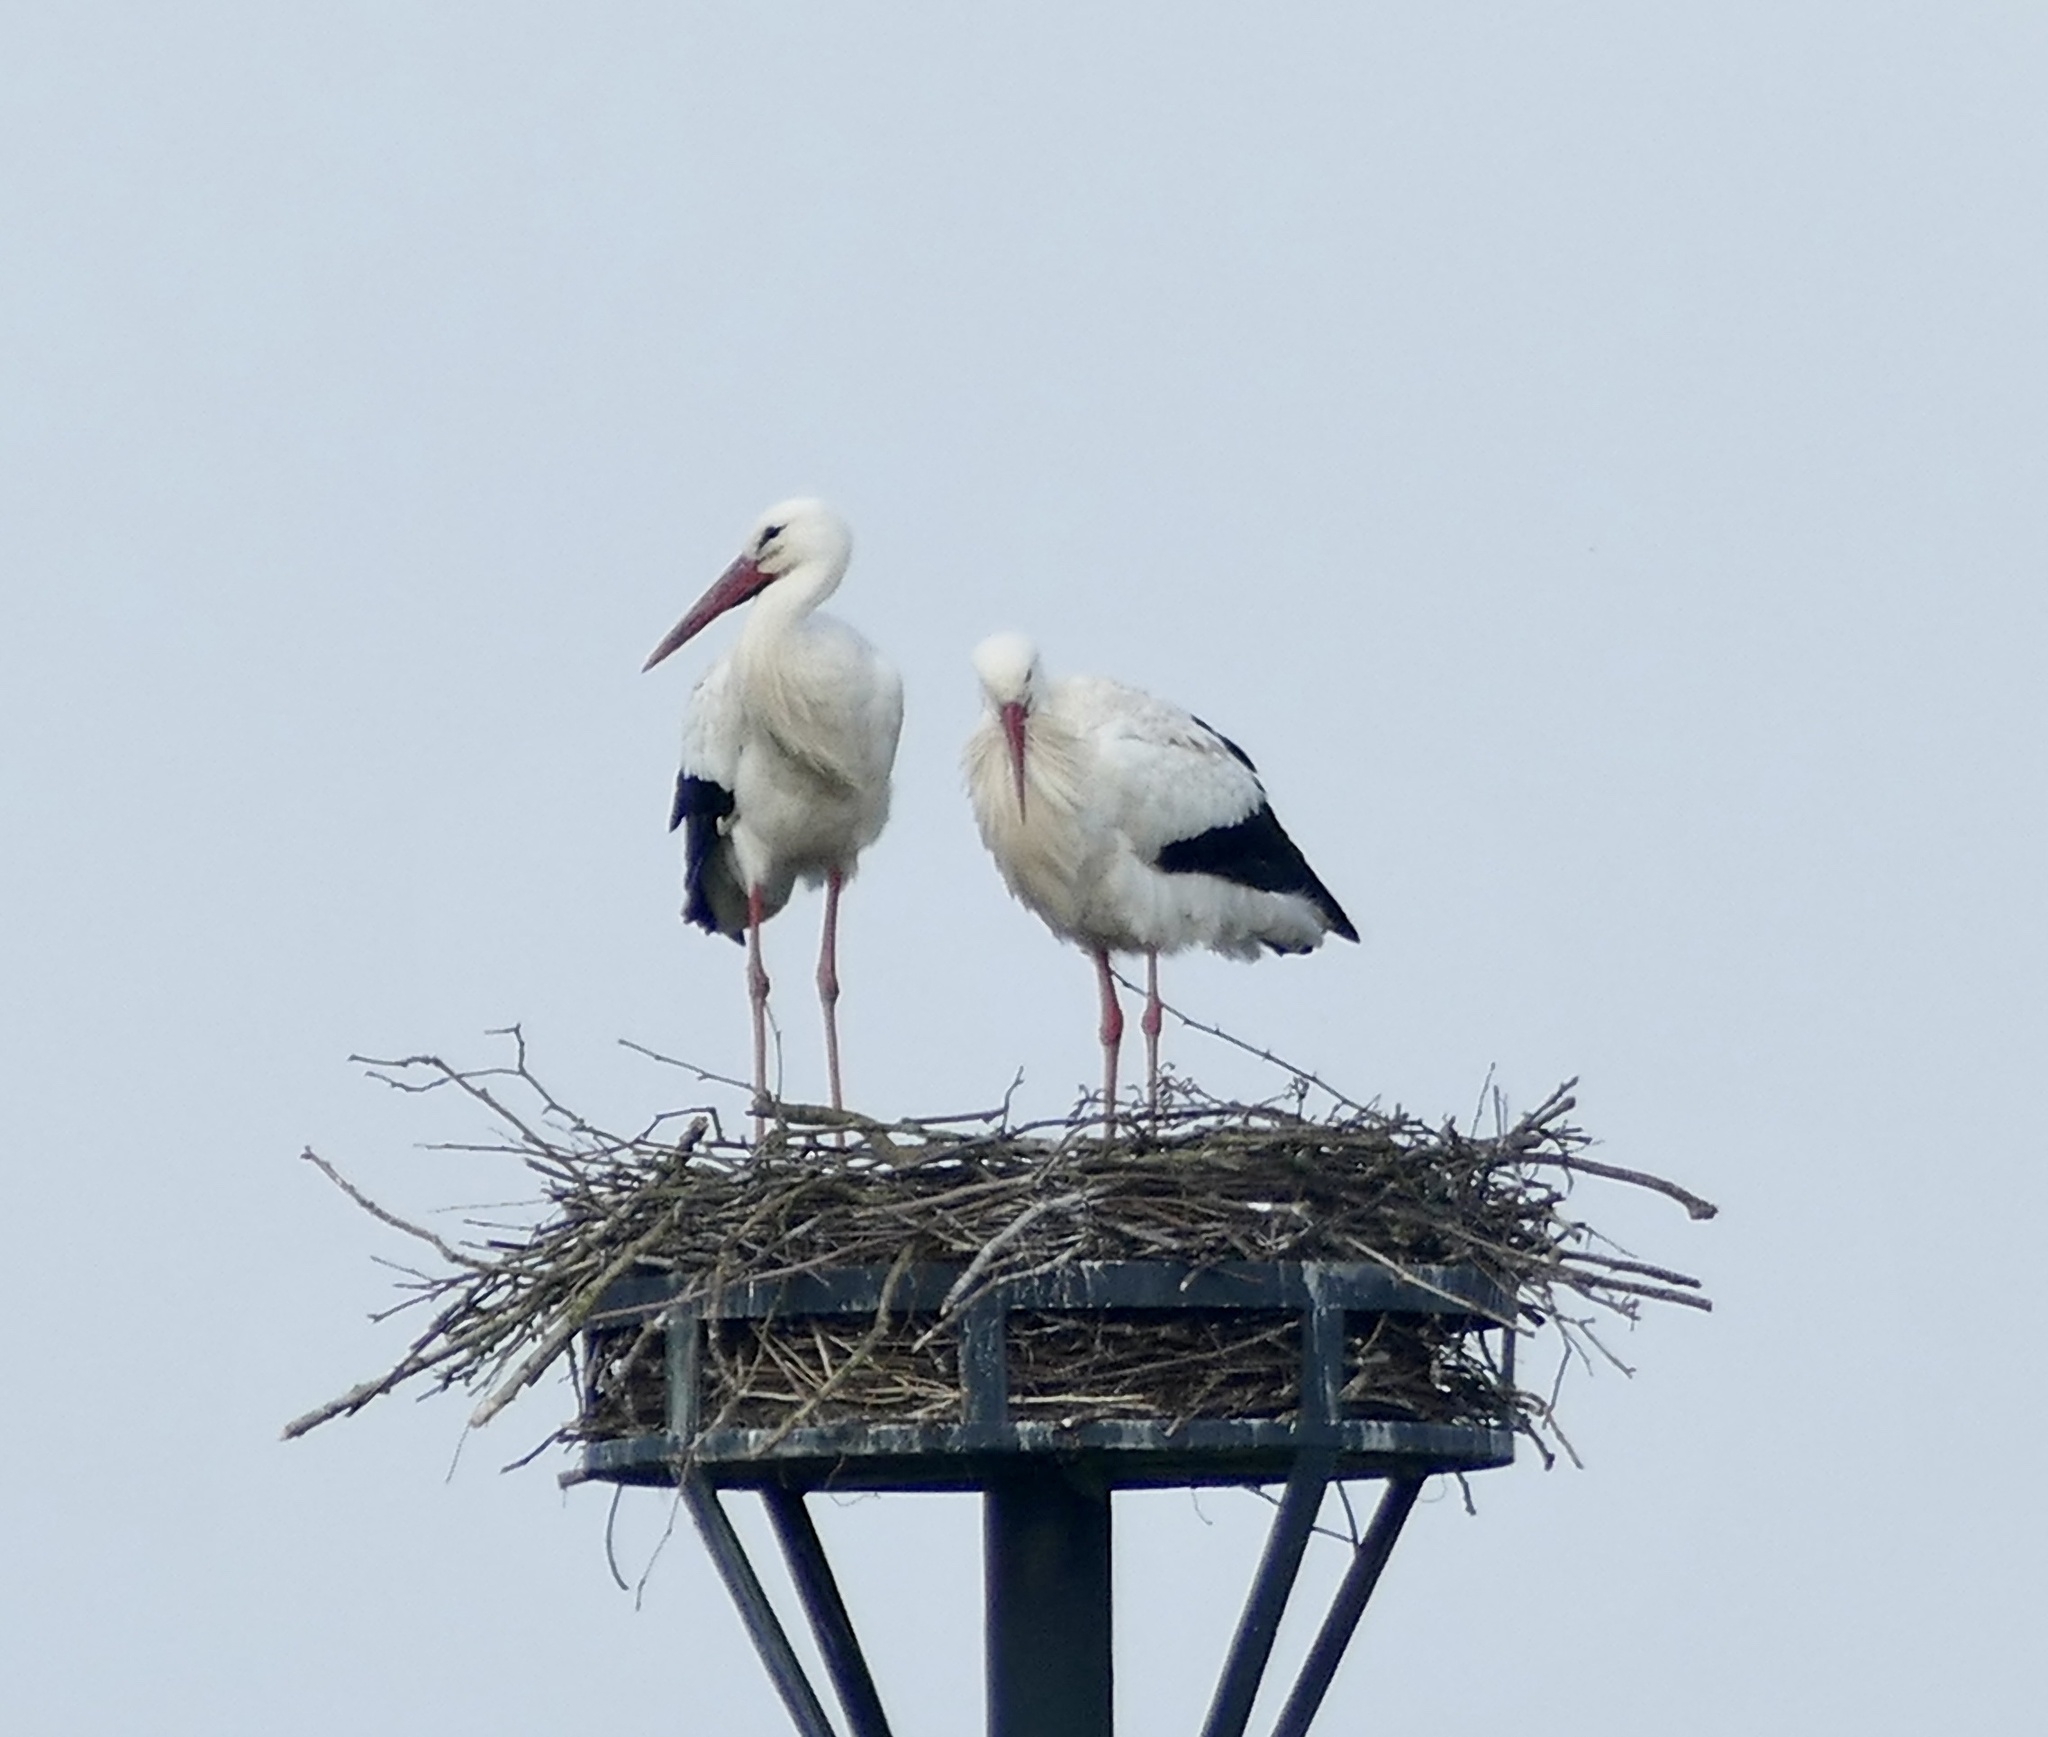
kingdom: Animalia
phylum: Chordata
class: Aves
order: Ciconiiformes
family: Ciconiidae
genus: Ciconia
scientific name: Ciconia ciconia
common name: White stork
